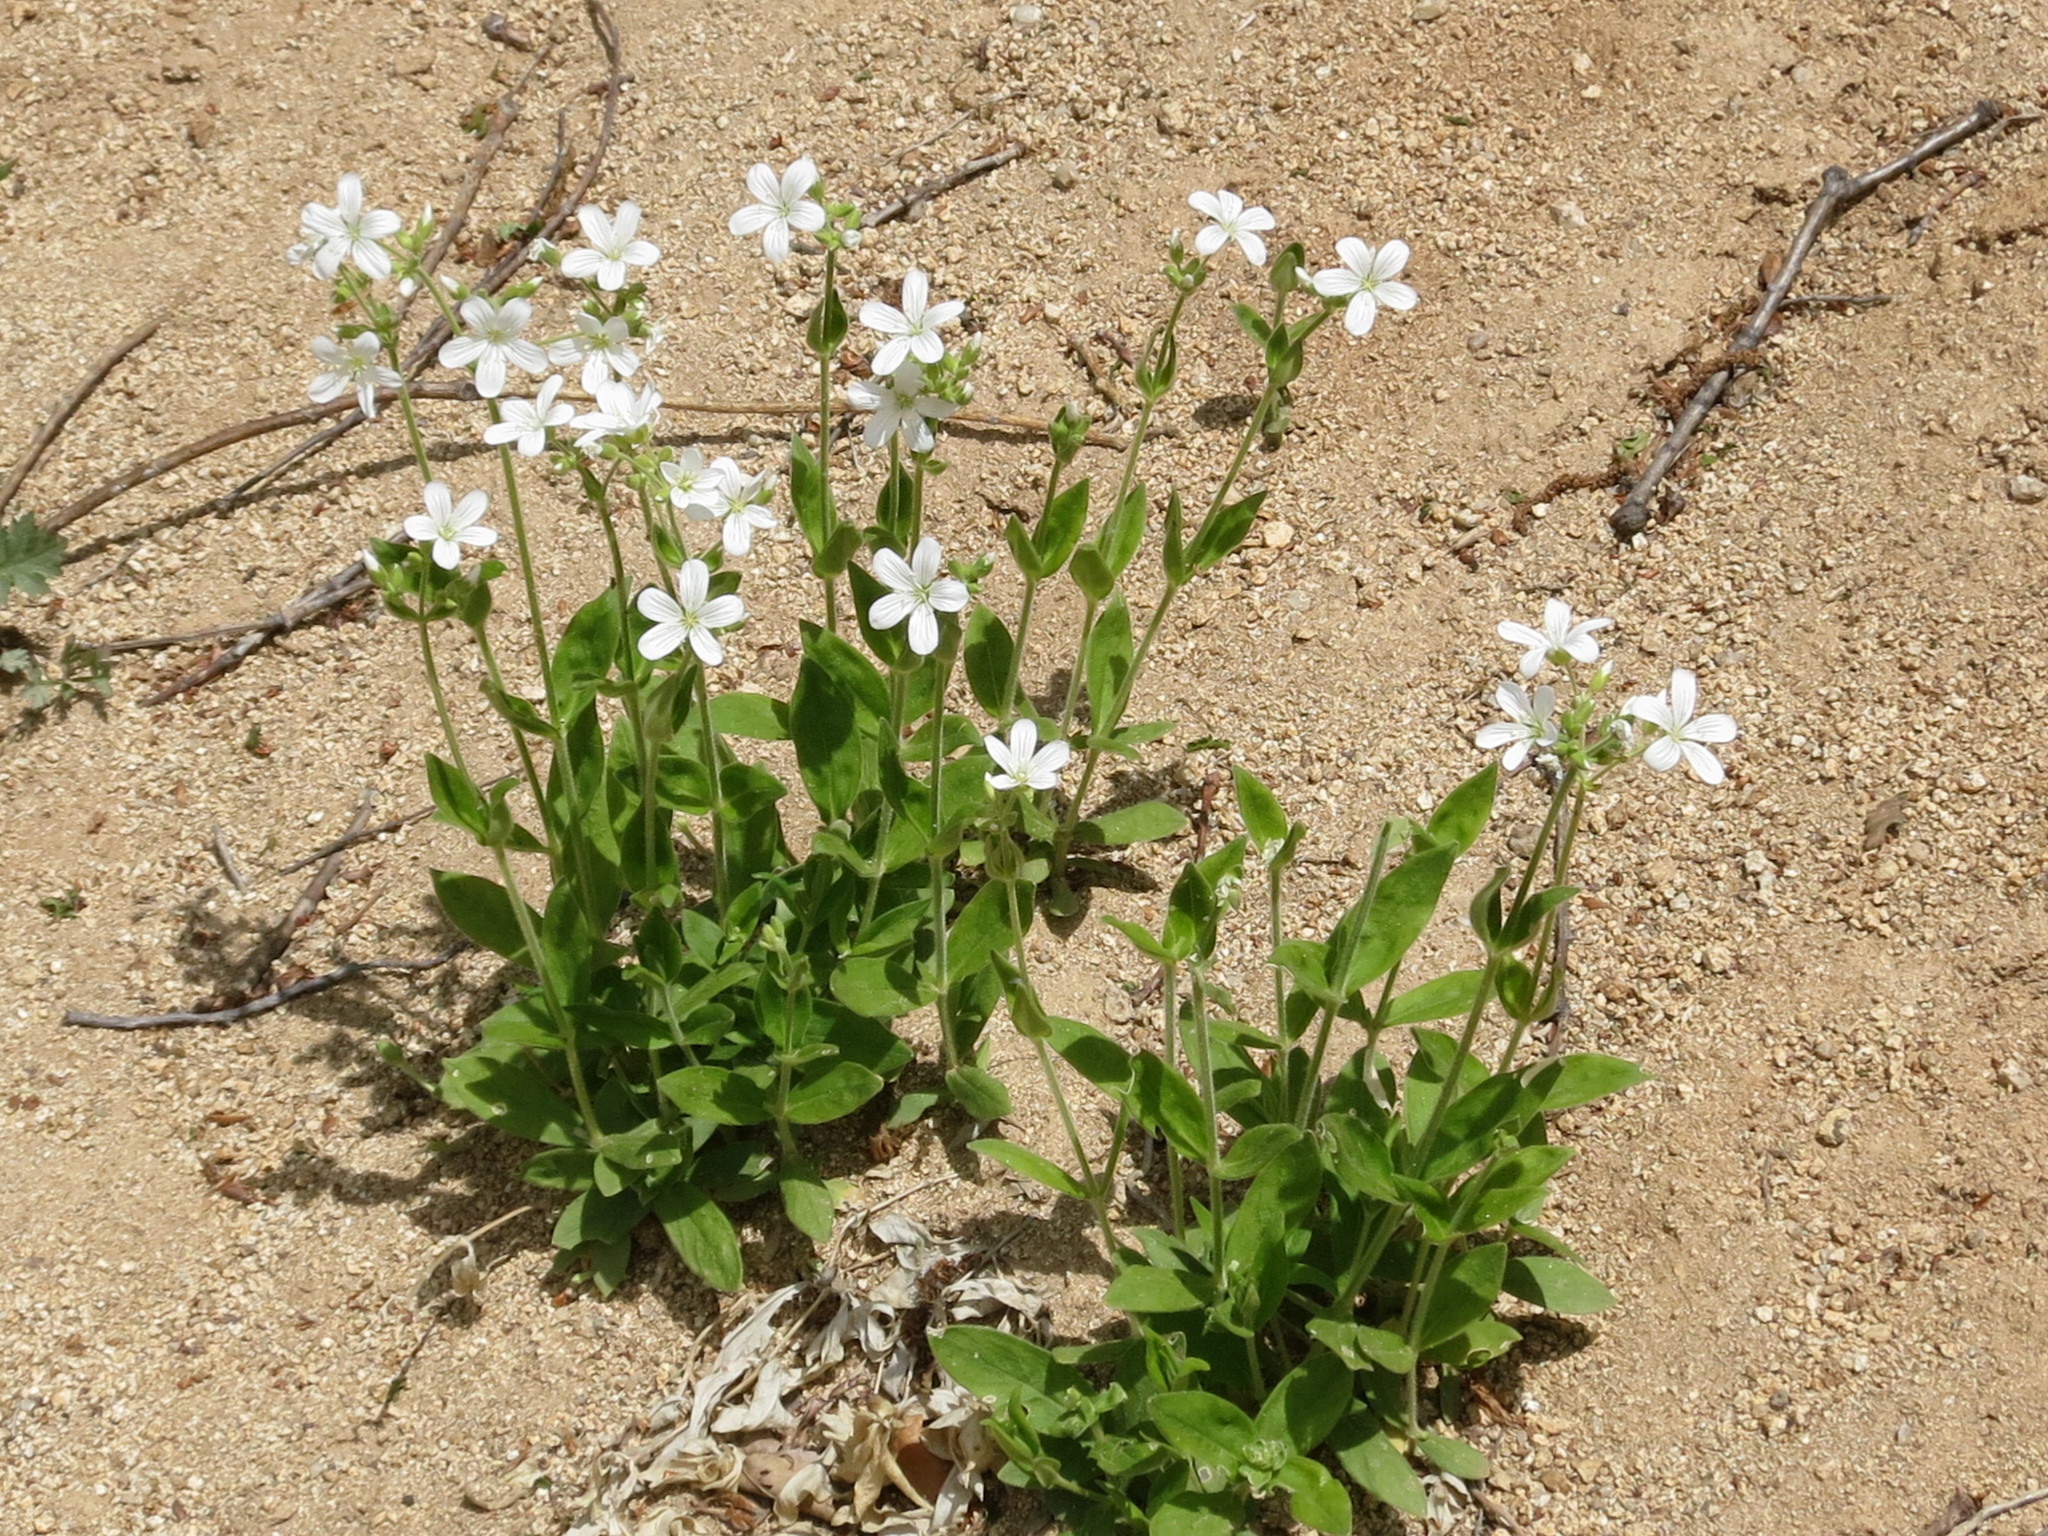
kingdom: Plantae
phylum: Tracheophyta
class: Magnoliopsida
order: Caryophyllales
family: Caryophyllaceae
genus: Cerastium
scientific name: Cerastium pauciflorum
